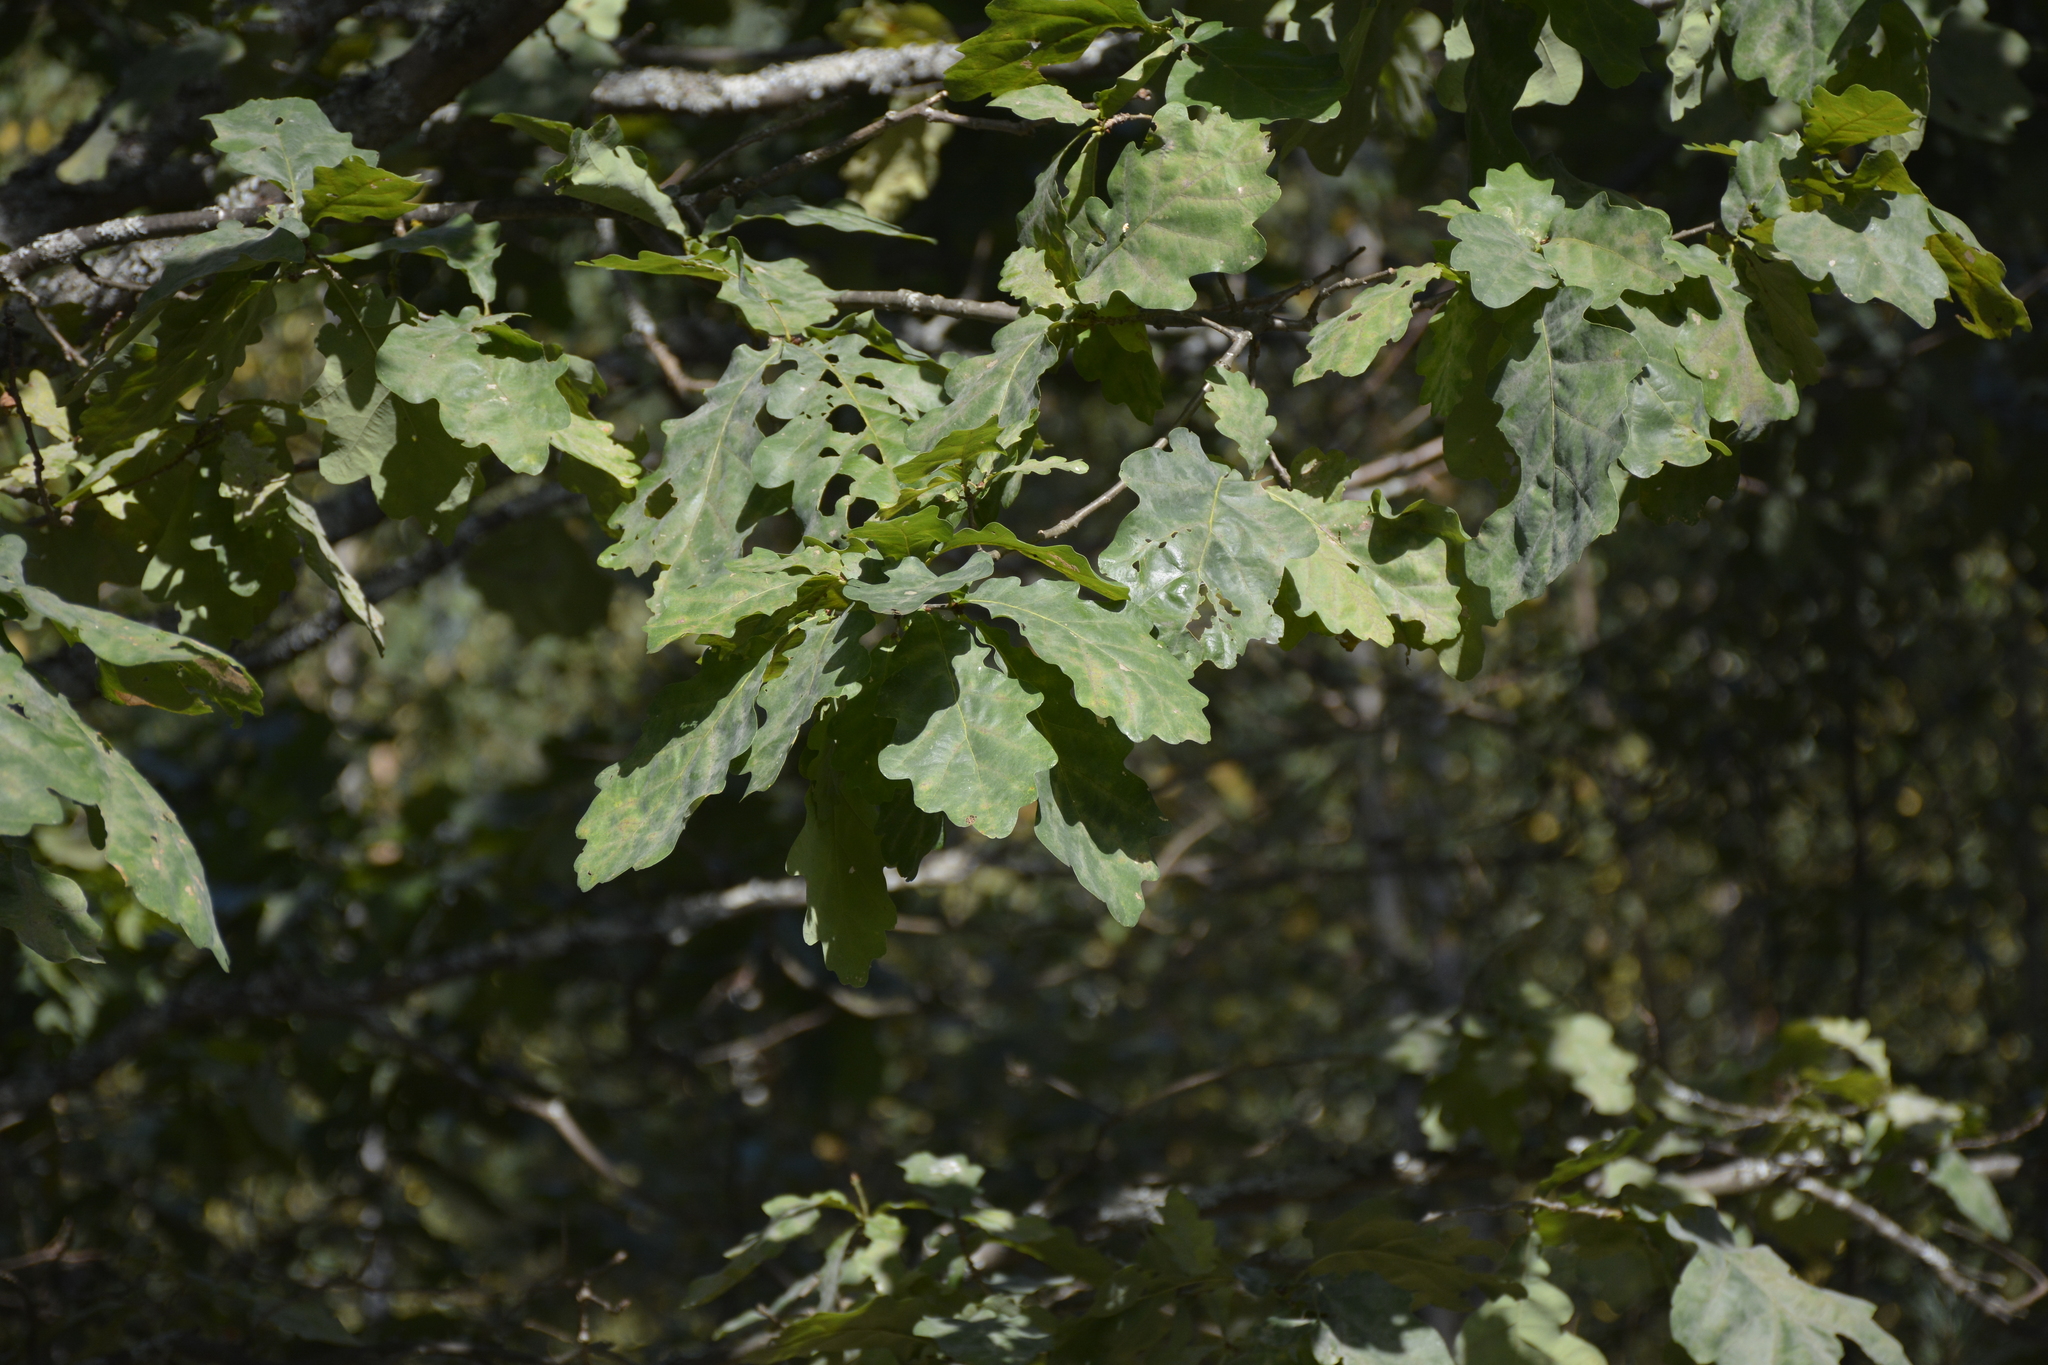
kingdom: Plantae
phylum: Tracheophyta
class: Magnoliopsida
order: Fagales
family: Fagaceae
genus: Quercus
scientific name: Quercus robur
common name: Pedunculate oak
